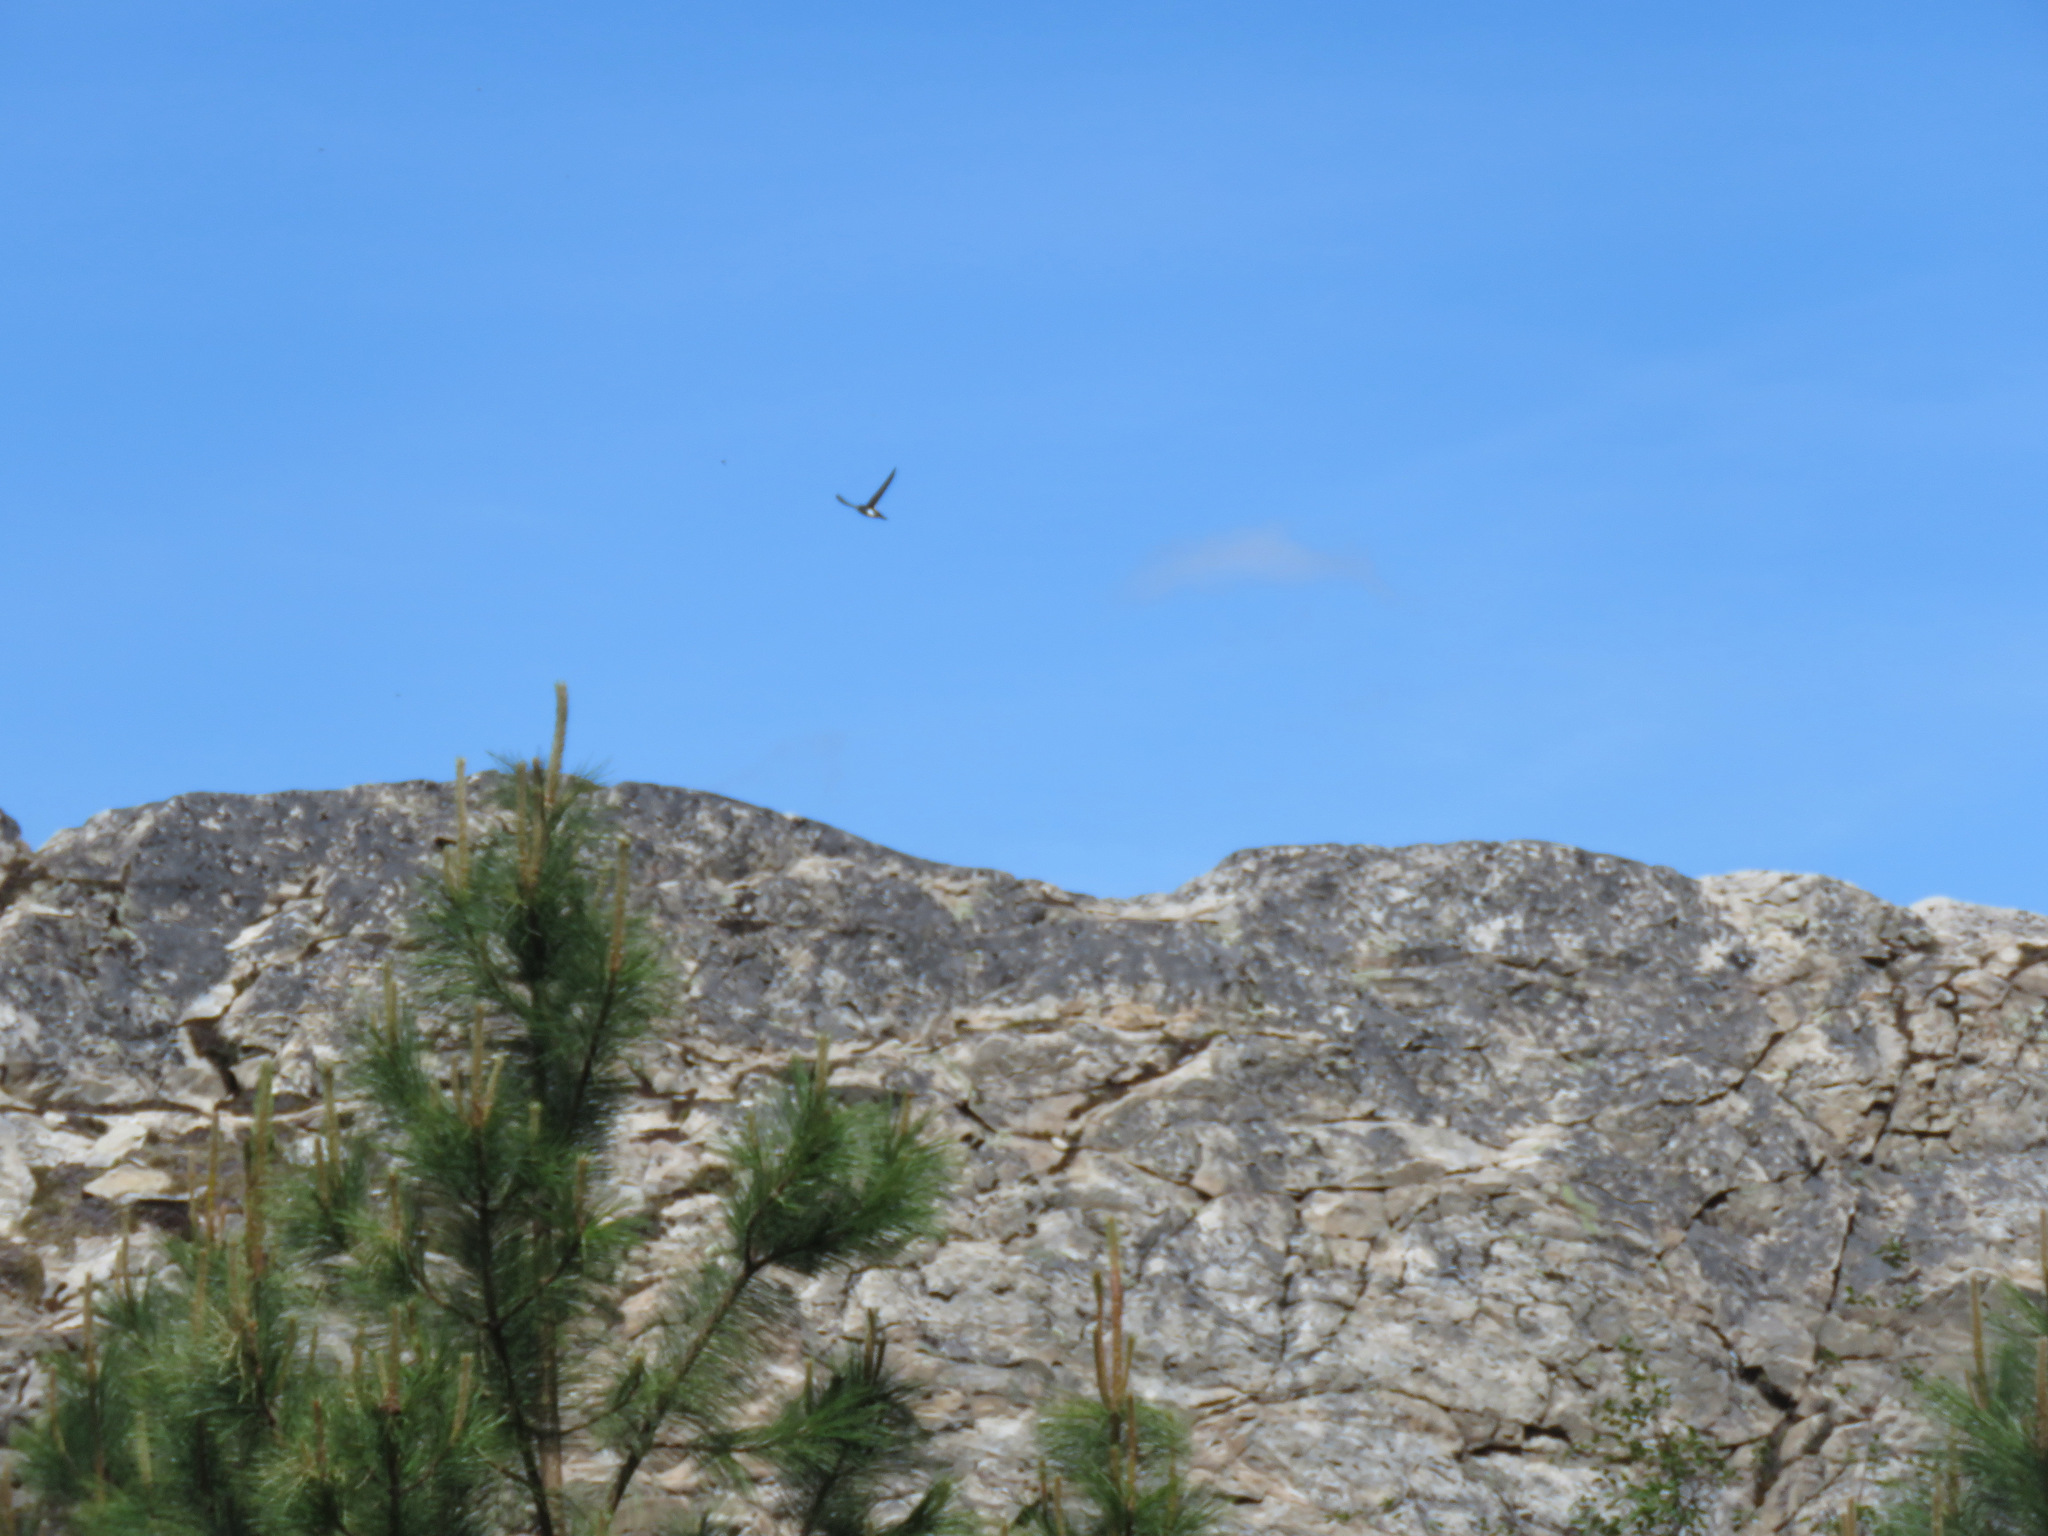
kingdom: Animalia
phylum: Chordata
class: Aves
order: Apodiformes
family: Apodidae
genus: Aeronautes
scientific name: Aeronautes saxatalis
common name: White-throated swift
